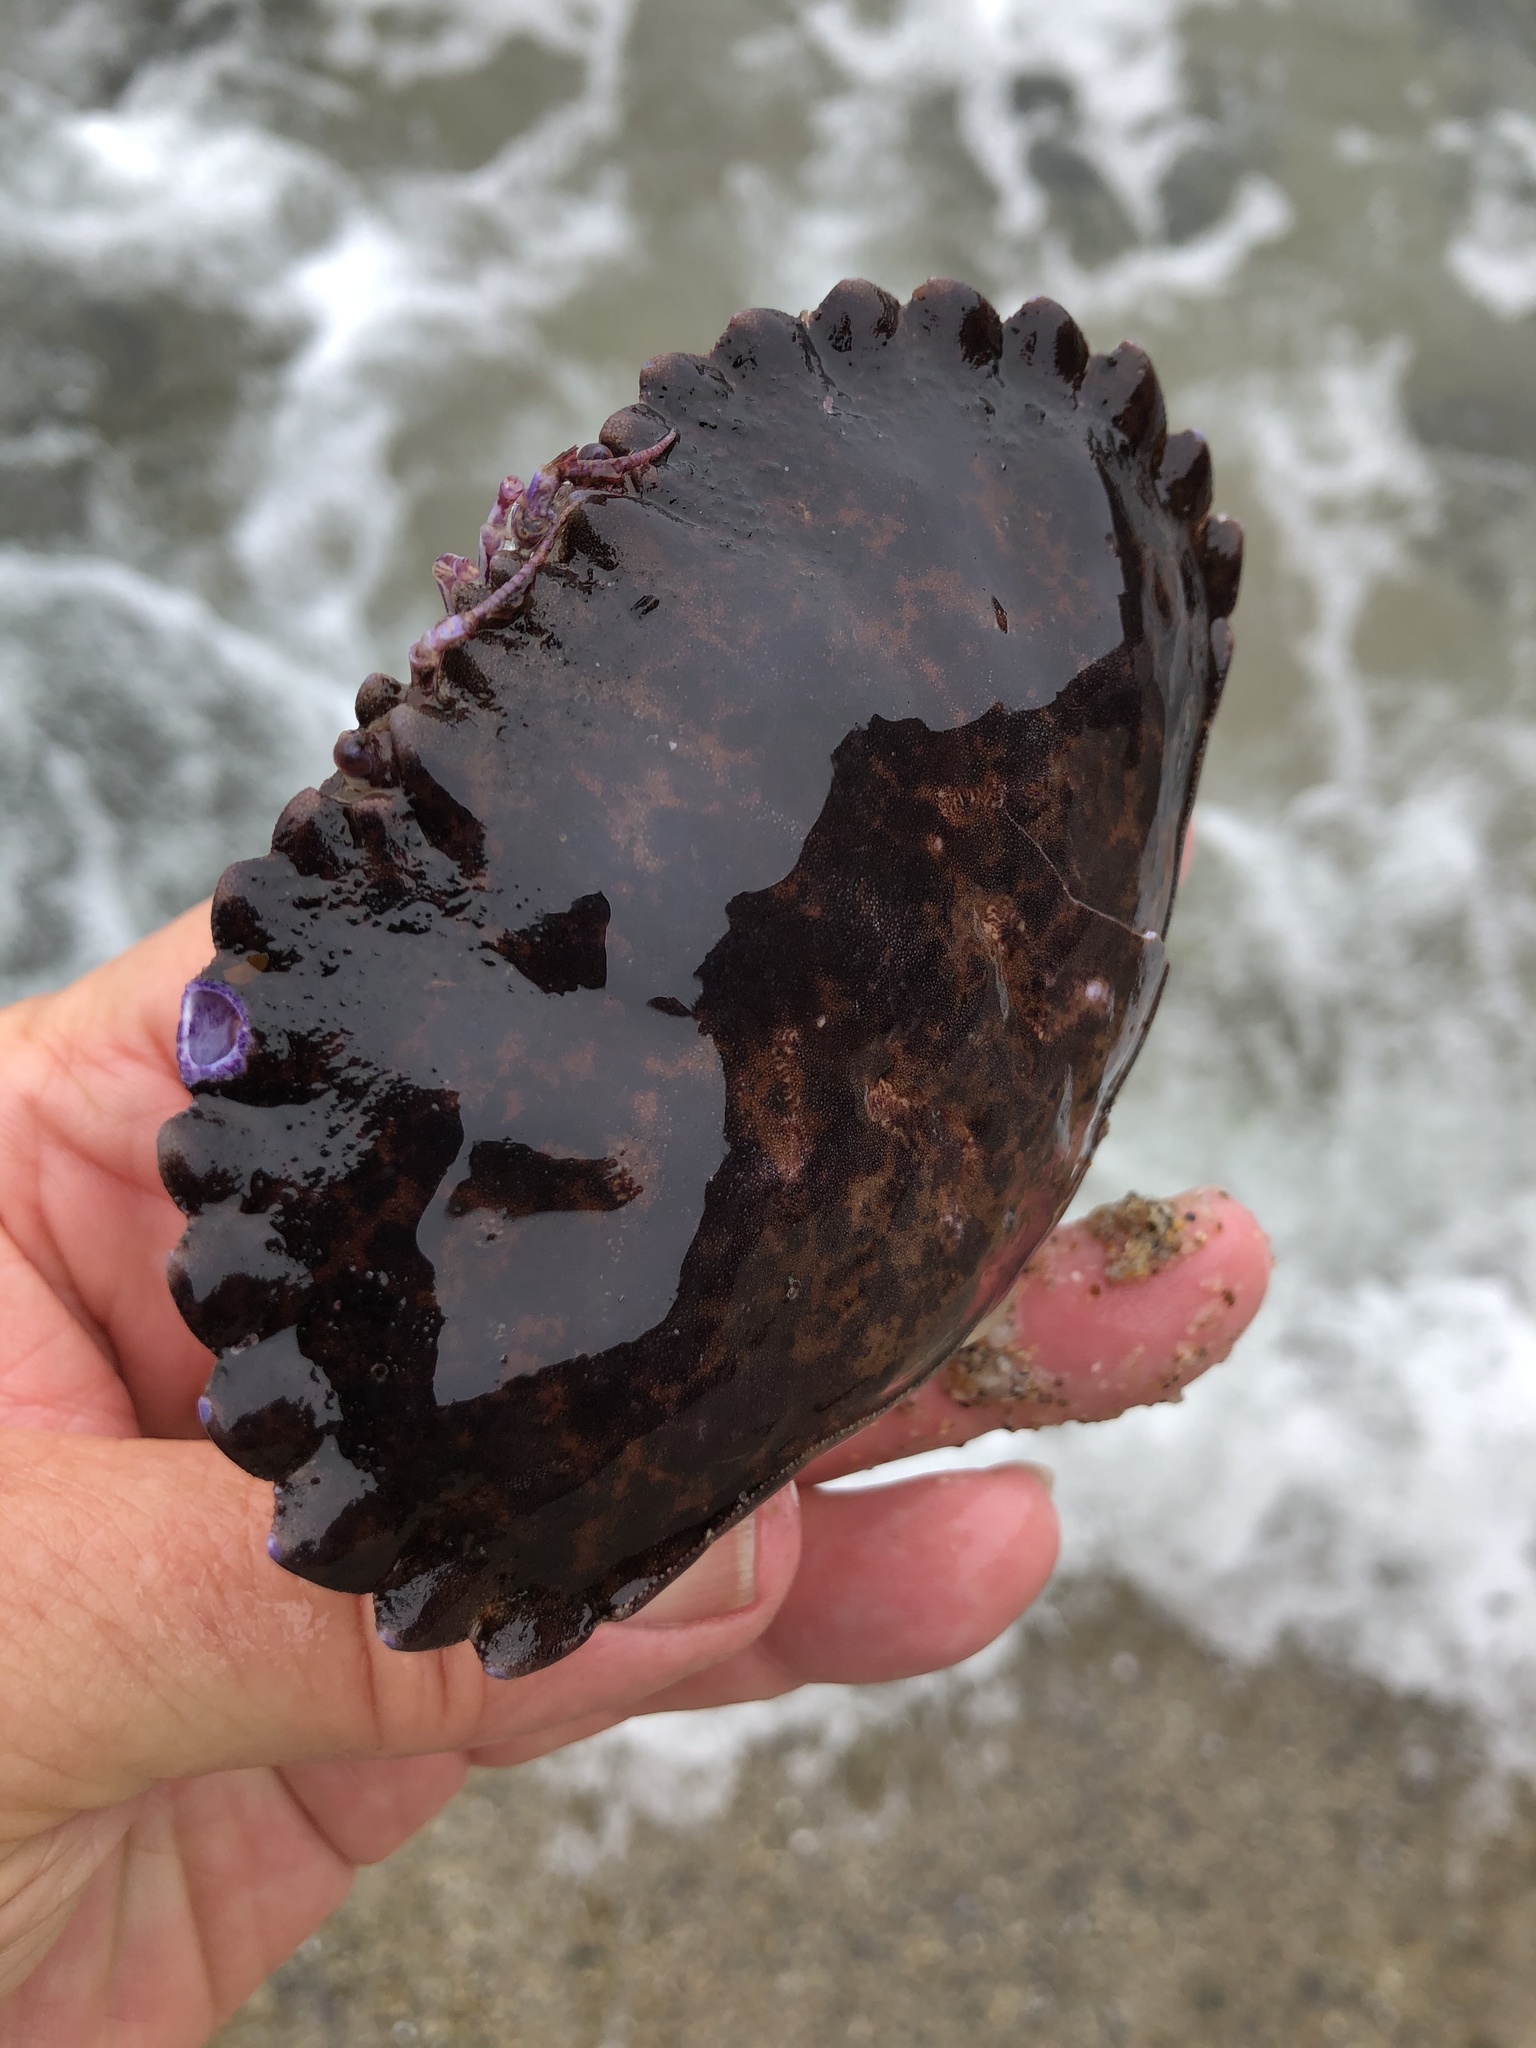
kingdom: Animalia
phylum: Arthropoda
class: Malacostraca
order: Decapoda
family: Cancridae
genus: Romaleon
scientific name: Romaleon antennarium
